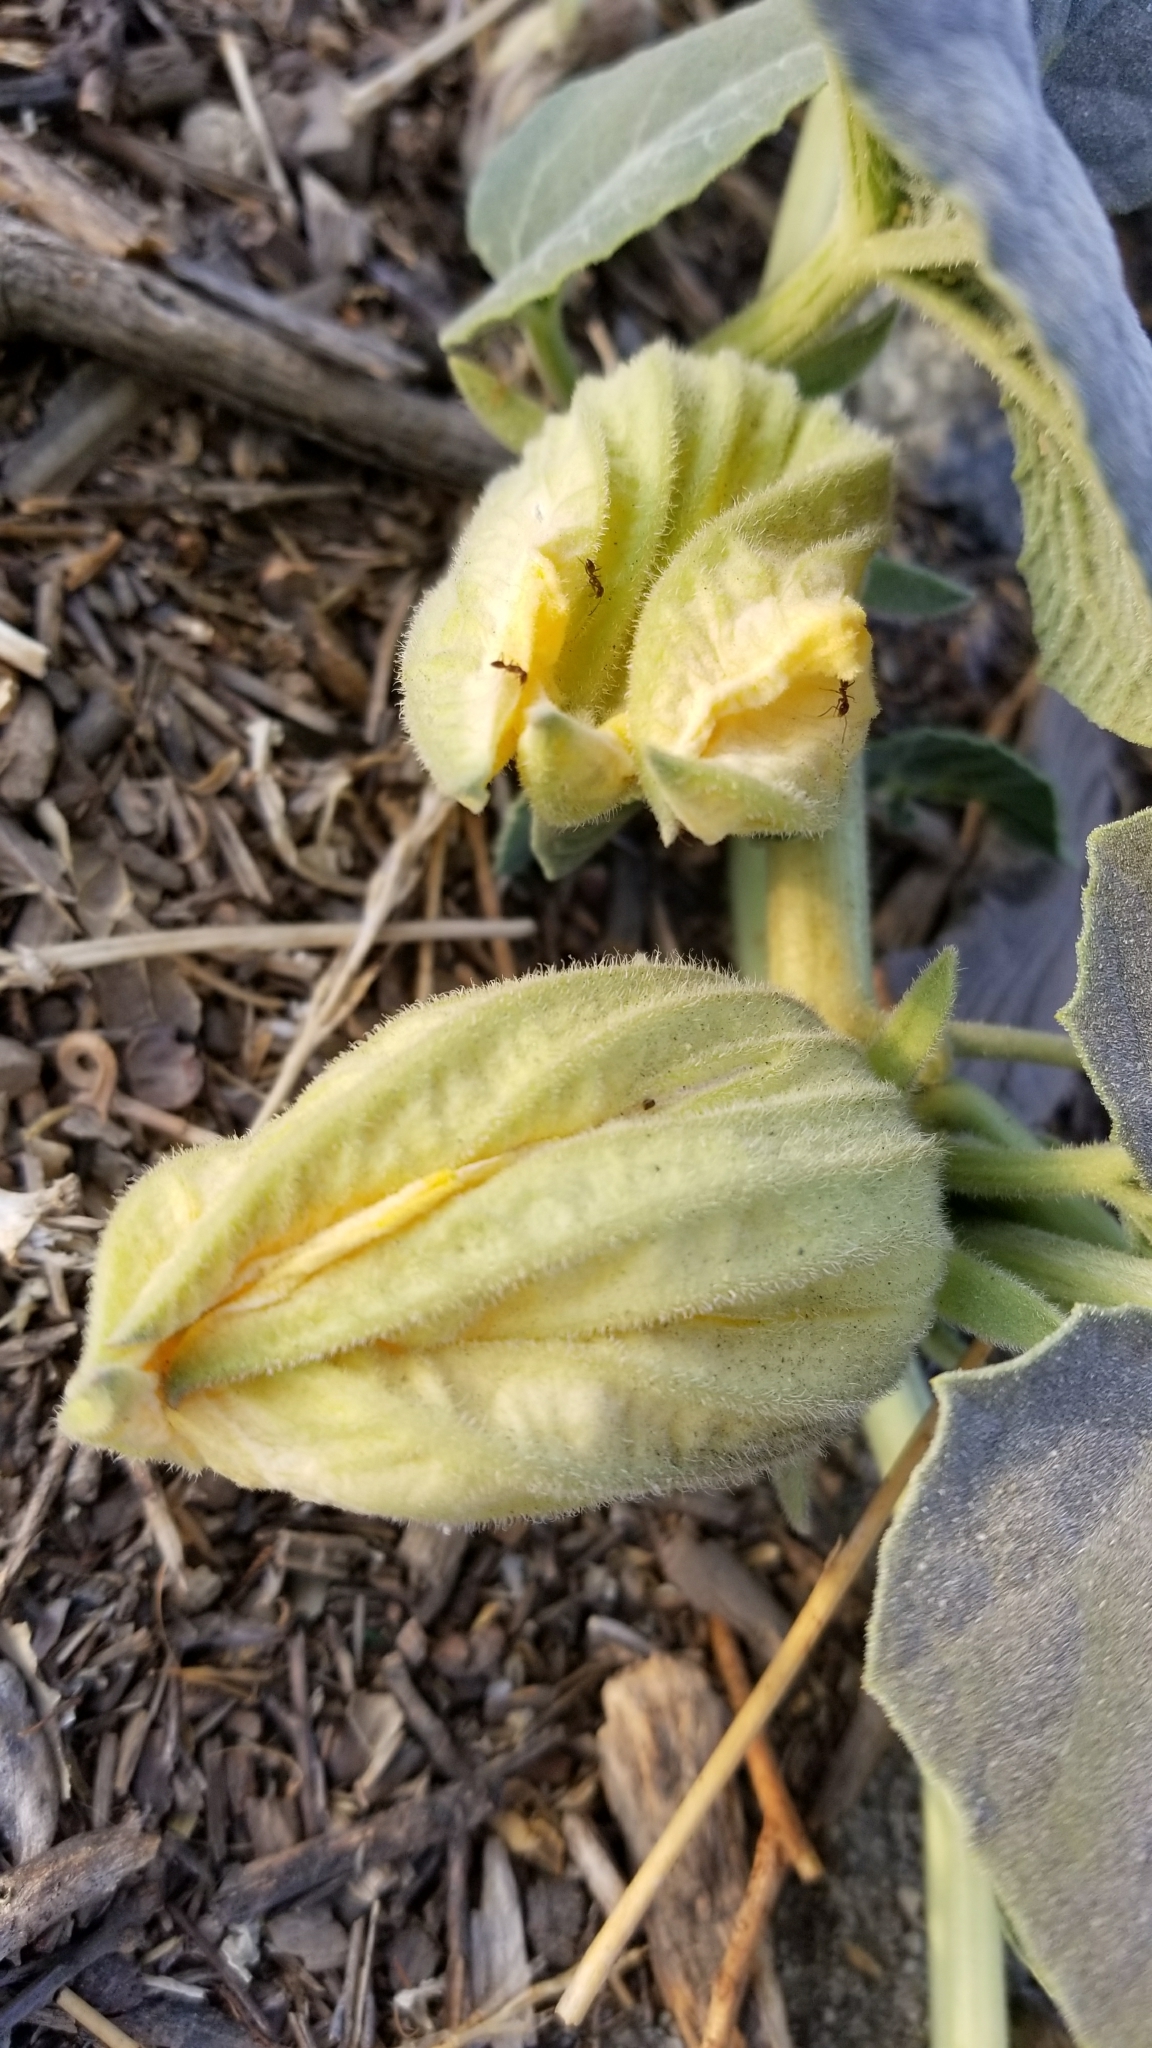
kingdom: Plantae
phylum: Tracheophyta
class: Magnoliopsida
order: Cucurbitales
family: Cucurbitaceae
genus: Cucurbita
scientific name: Cucurbita foetidissima
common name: Buffalo gourd
